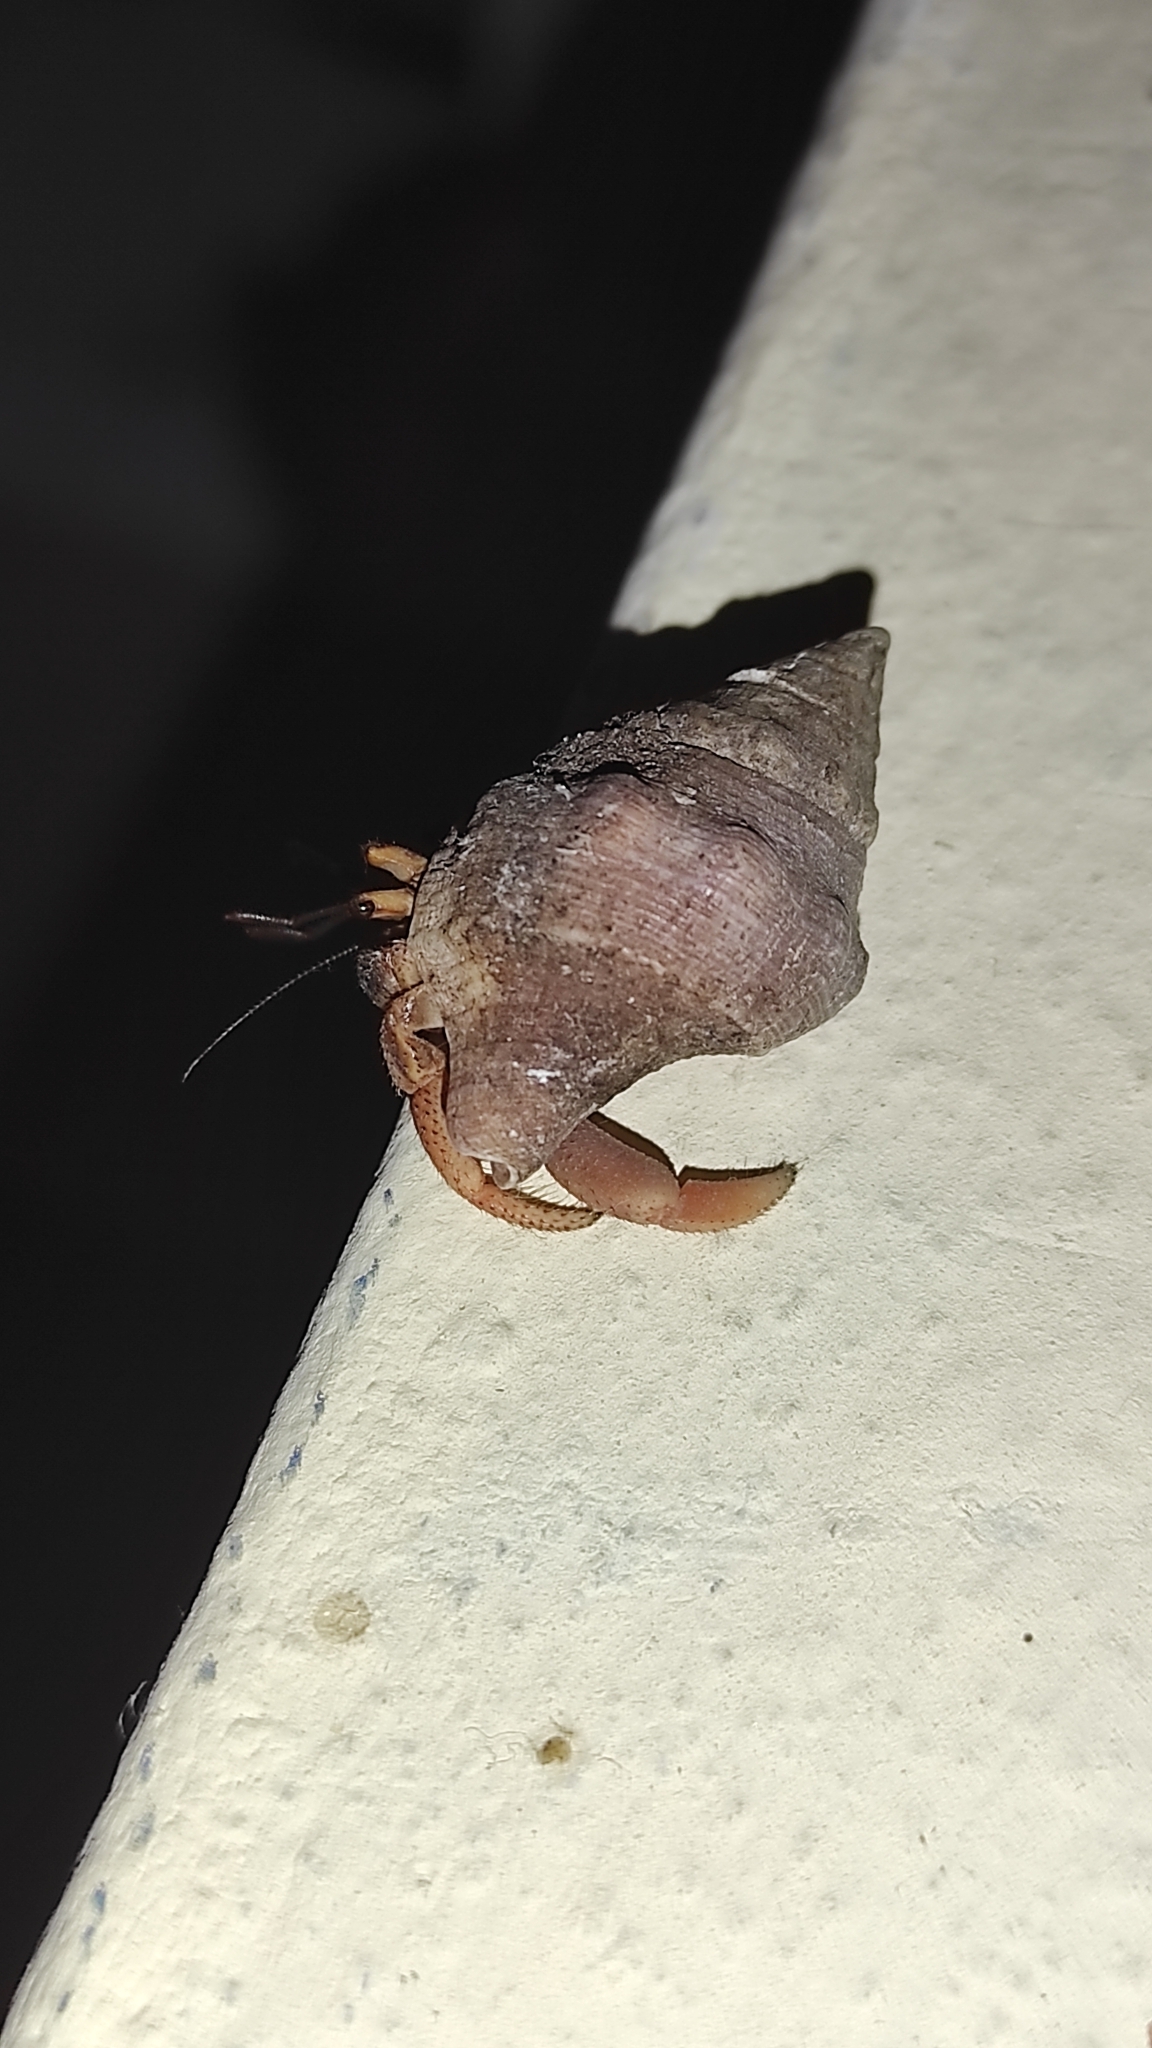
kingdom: Animalia
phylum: Arthropoda
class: Malacostraca
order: Decapoda
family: Coenobitidae
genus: Coenobita
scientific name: Coenobita clypeatus
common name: Caribbean hermit crab
